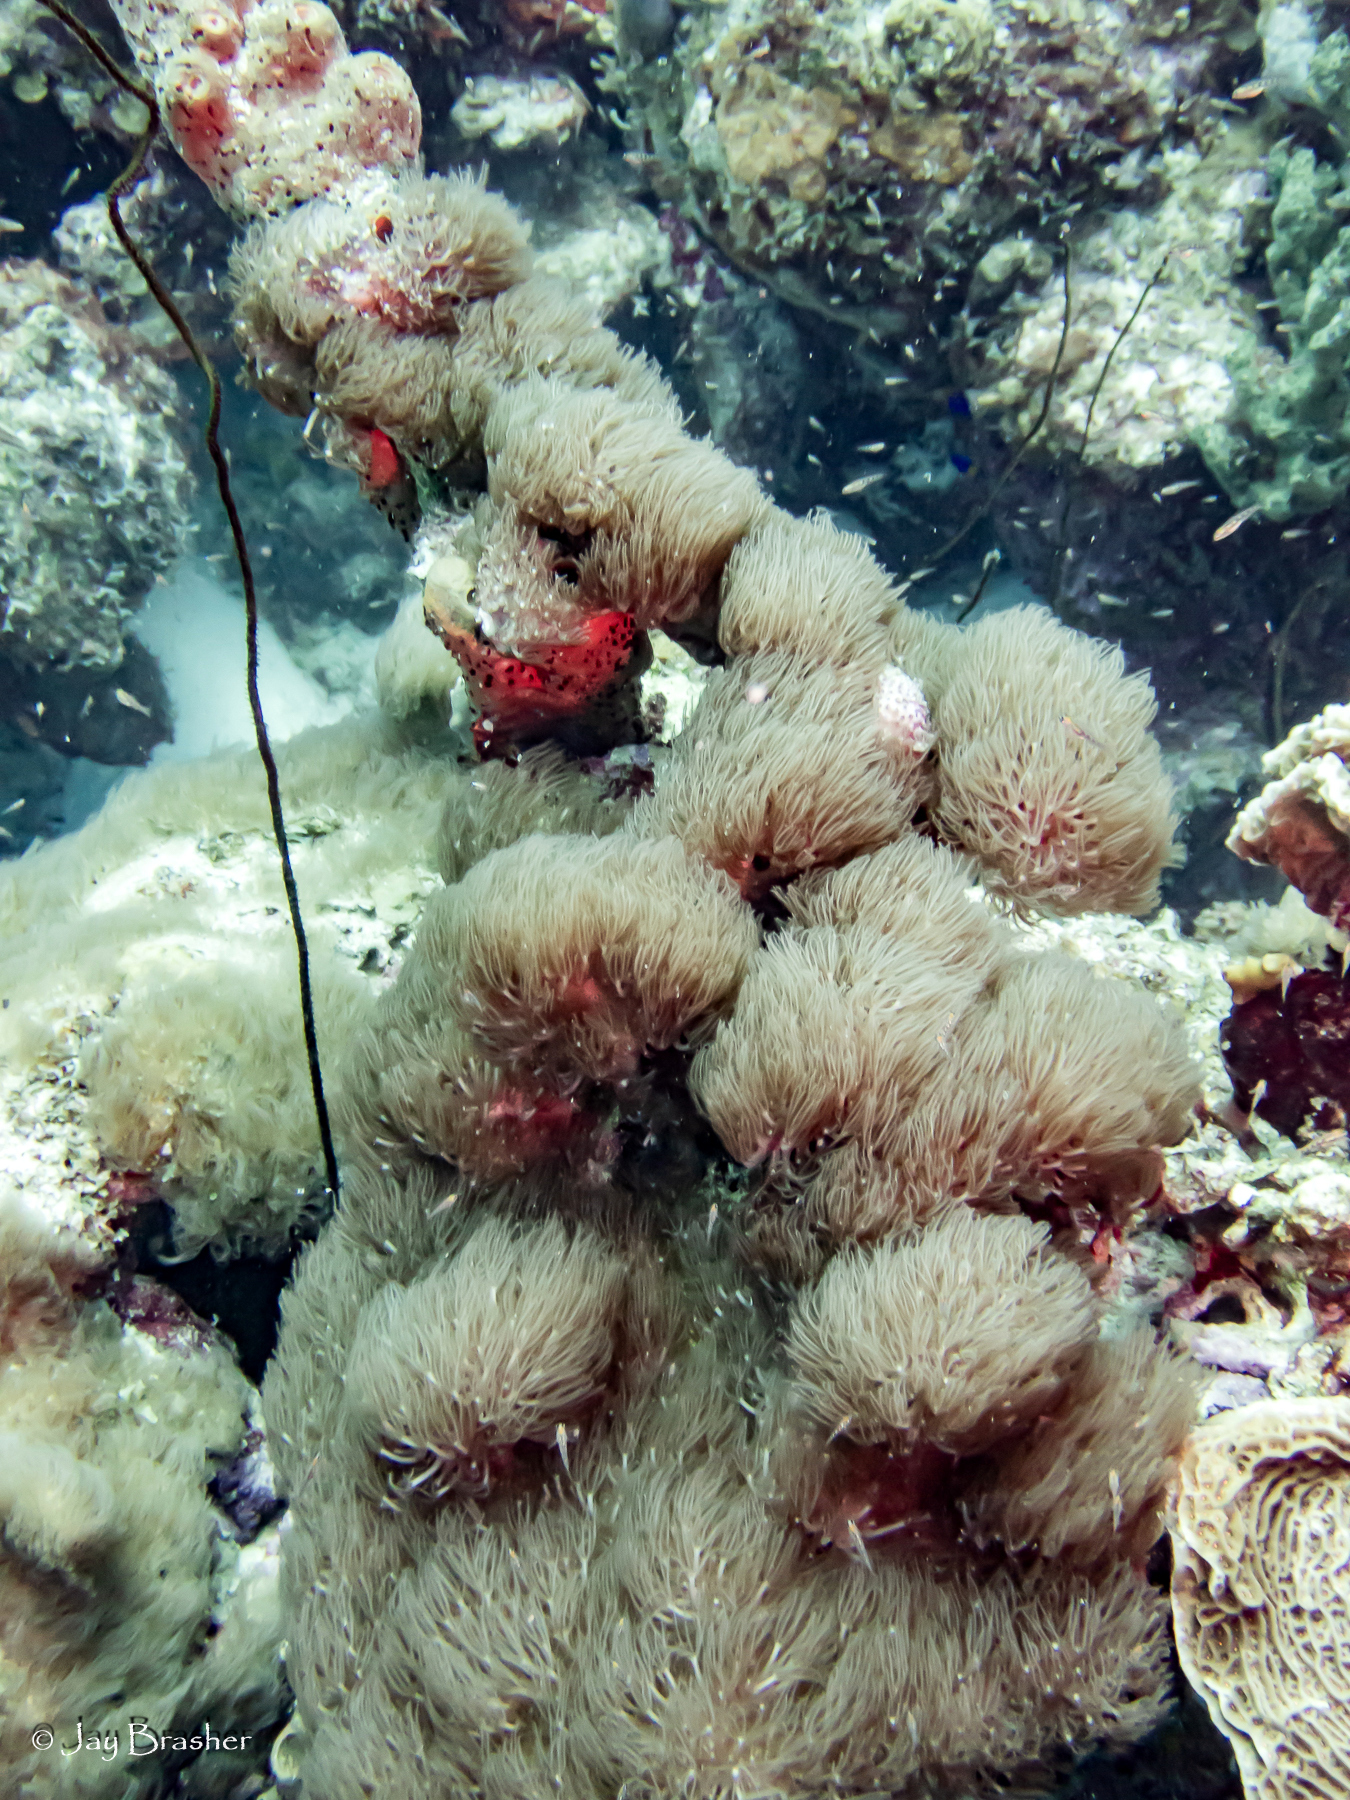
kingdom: Animalia
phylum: Cnidaria
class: Anthozoa
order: Scleralcyonacea
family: Erythropodiidae
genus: Erythropodium
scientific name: Erythropodium caribaeorum
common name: Encrusting gorgonian
